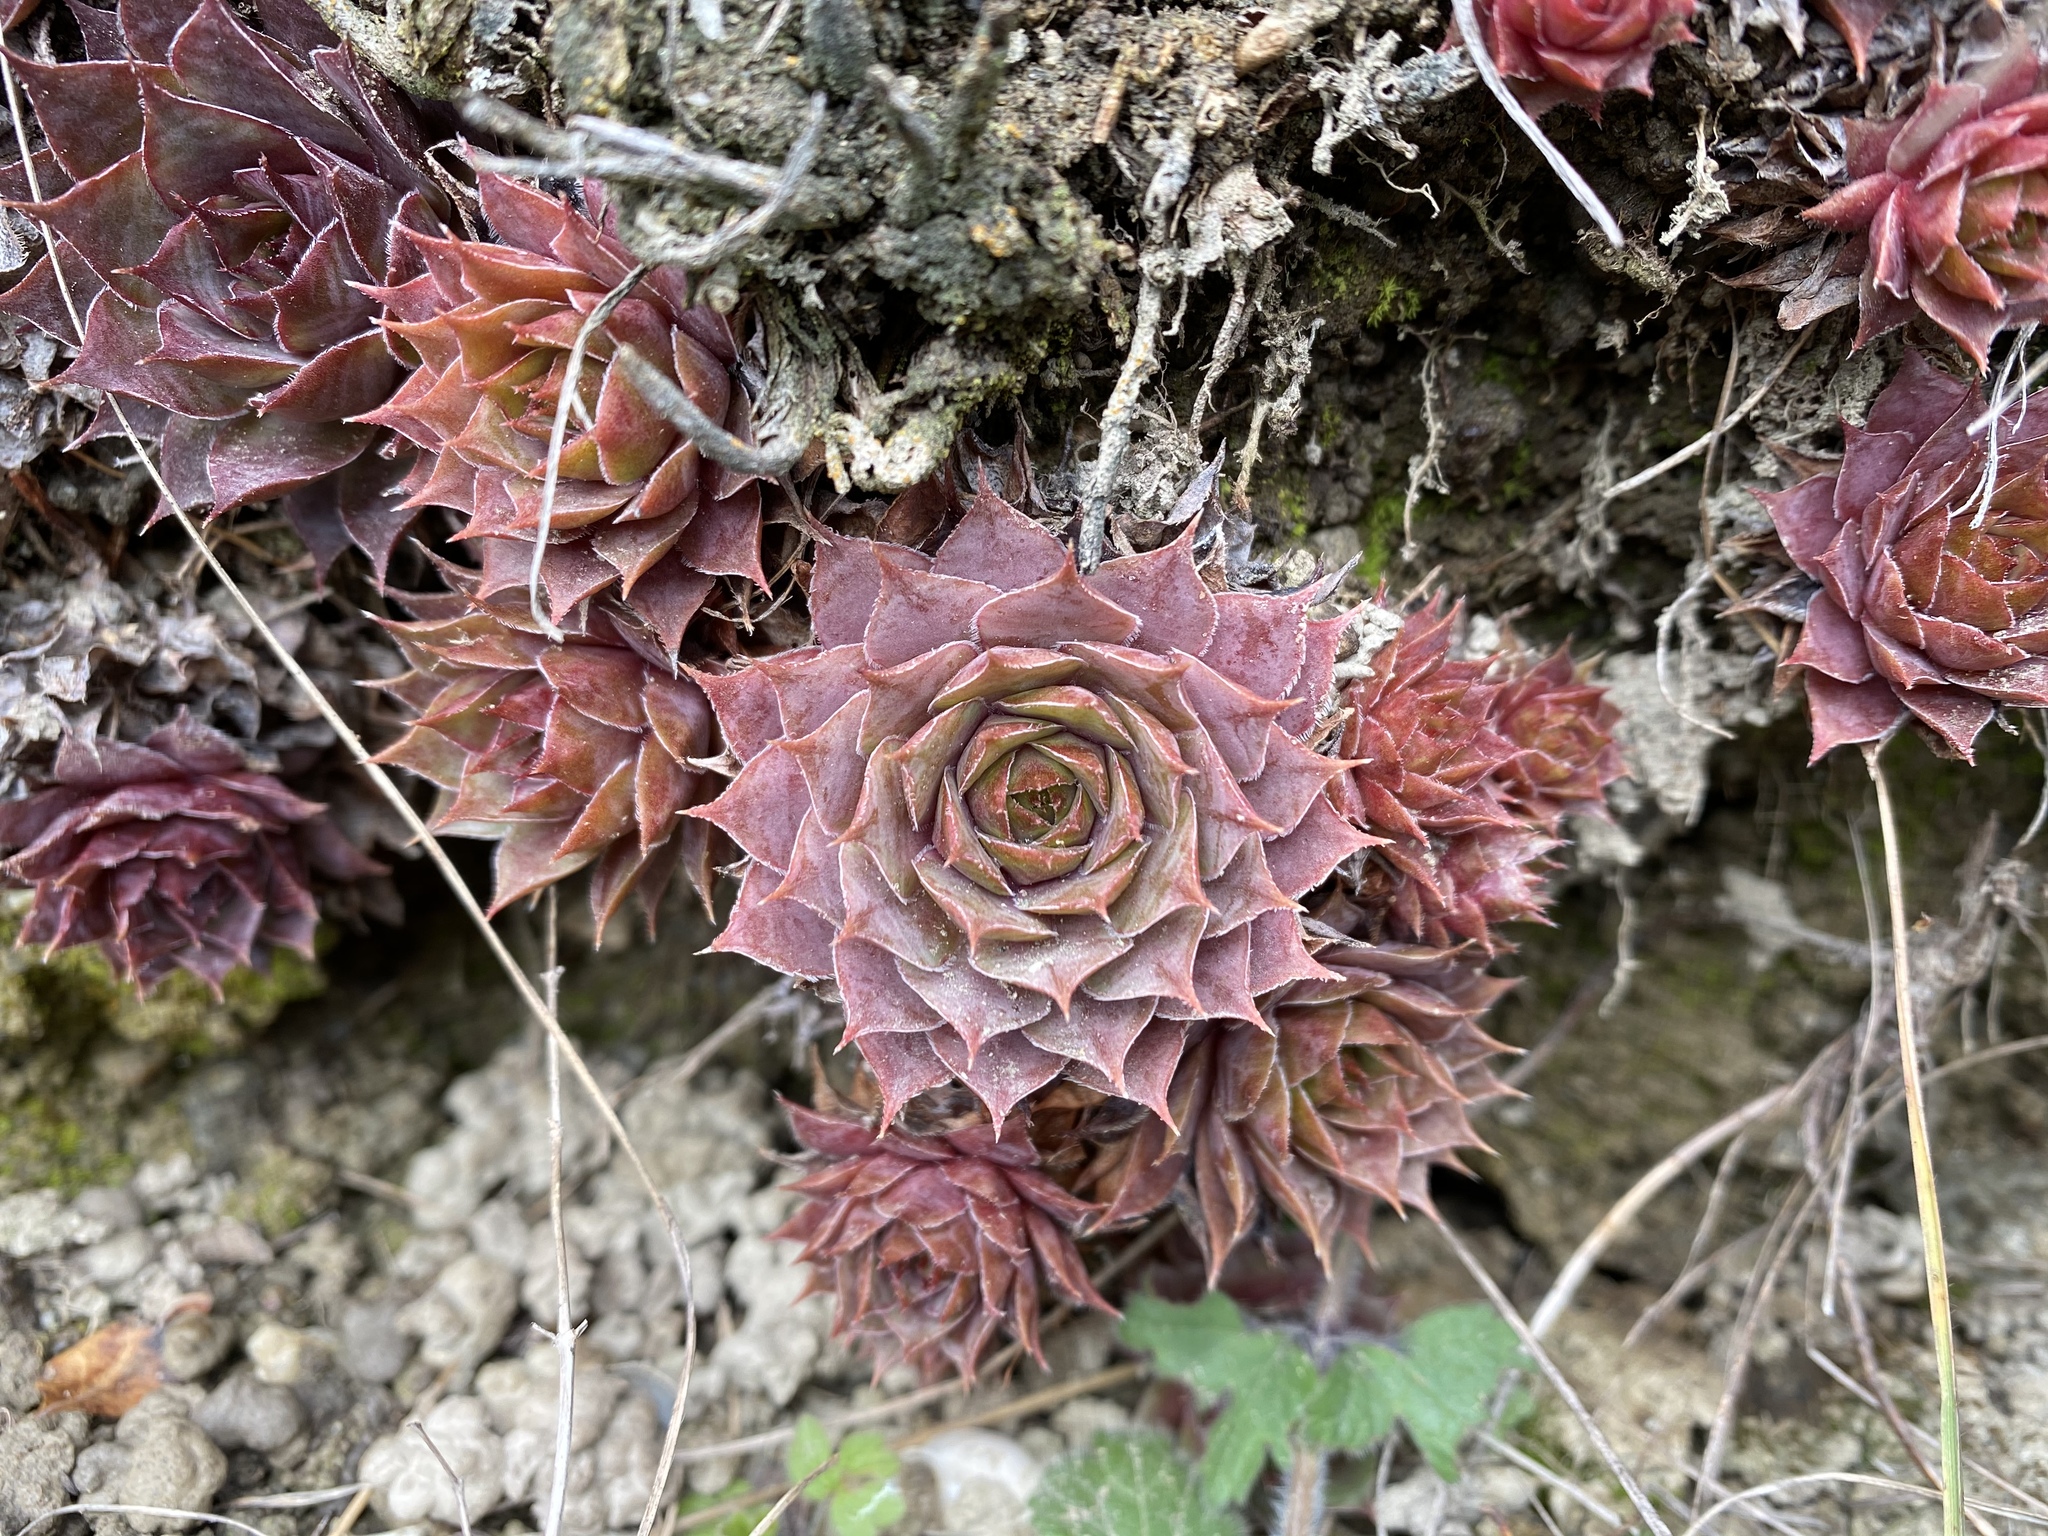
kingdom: Plantae
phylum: Tracheophyta
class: Magnoliopsida
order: Saxifragales
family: Crassulaceae
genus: Sempervivum
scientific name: Sempervivum tectorum
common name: House-leek
